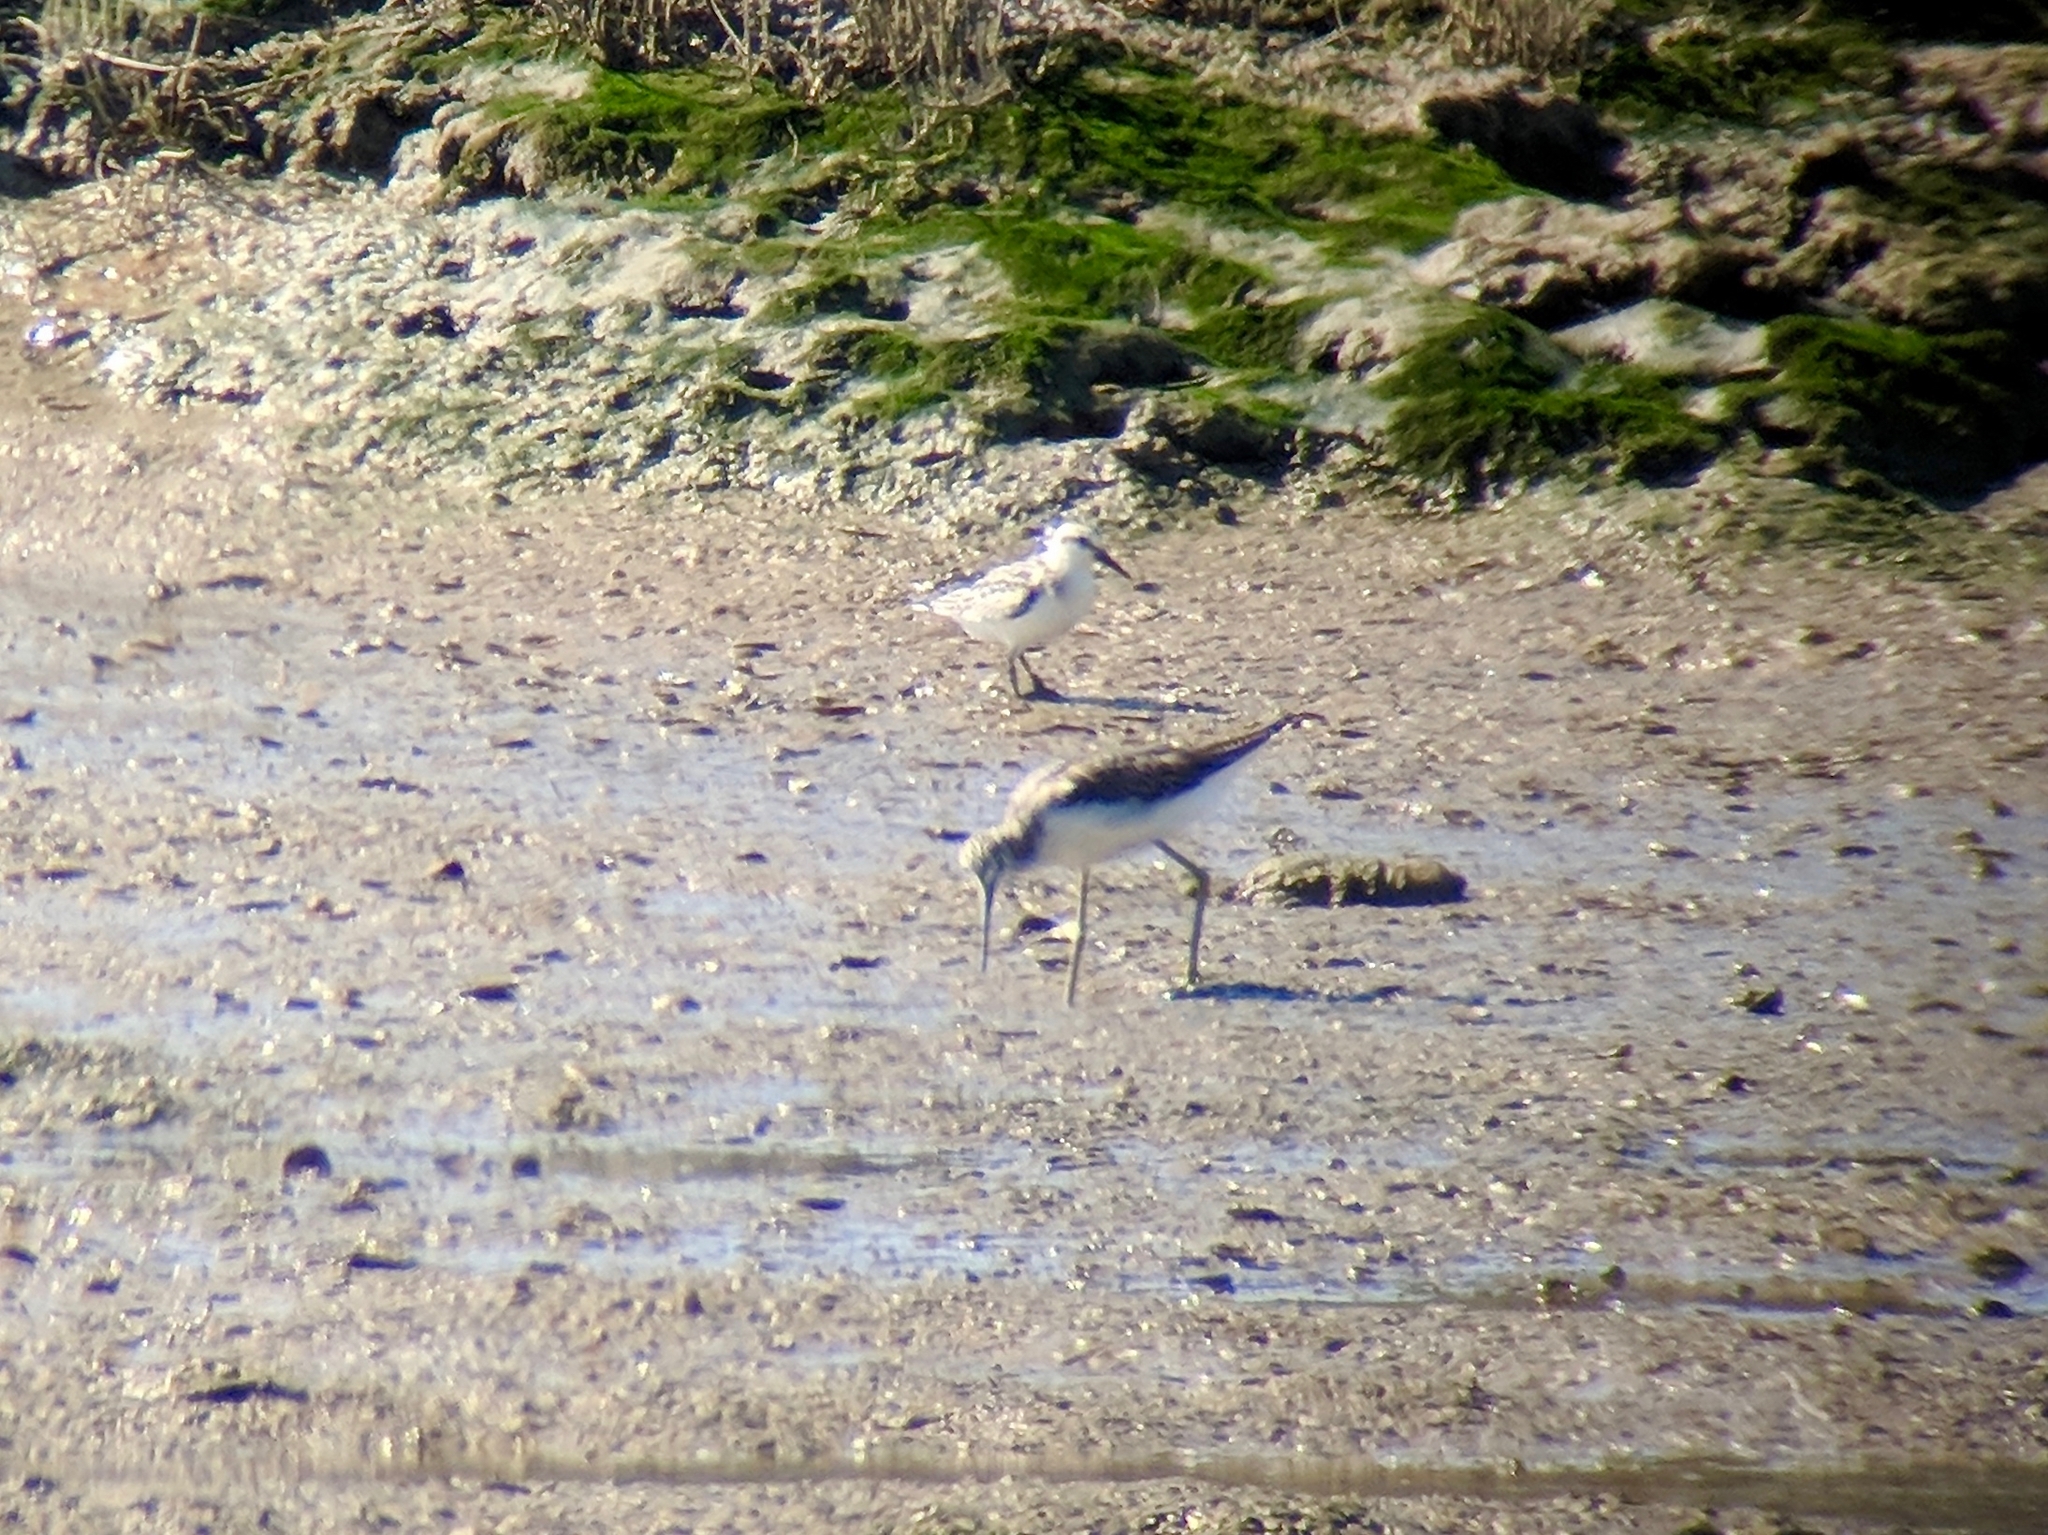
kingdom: Animalia
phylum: Chordata
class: Aves
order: Charadriiformes
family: Scolopacidae
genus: Tringa
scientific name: Tringa nebularia
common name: Common greenshank
